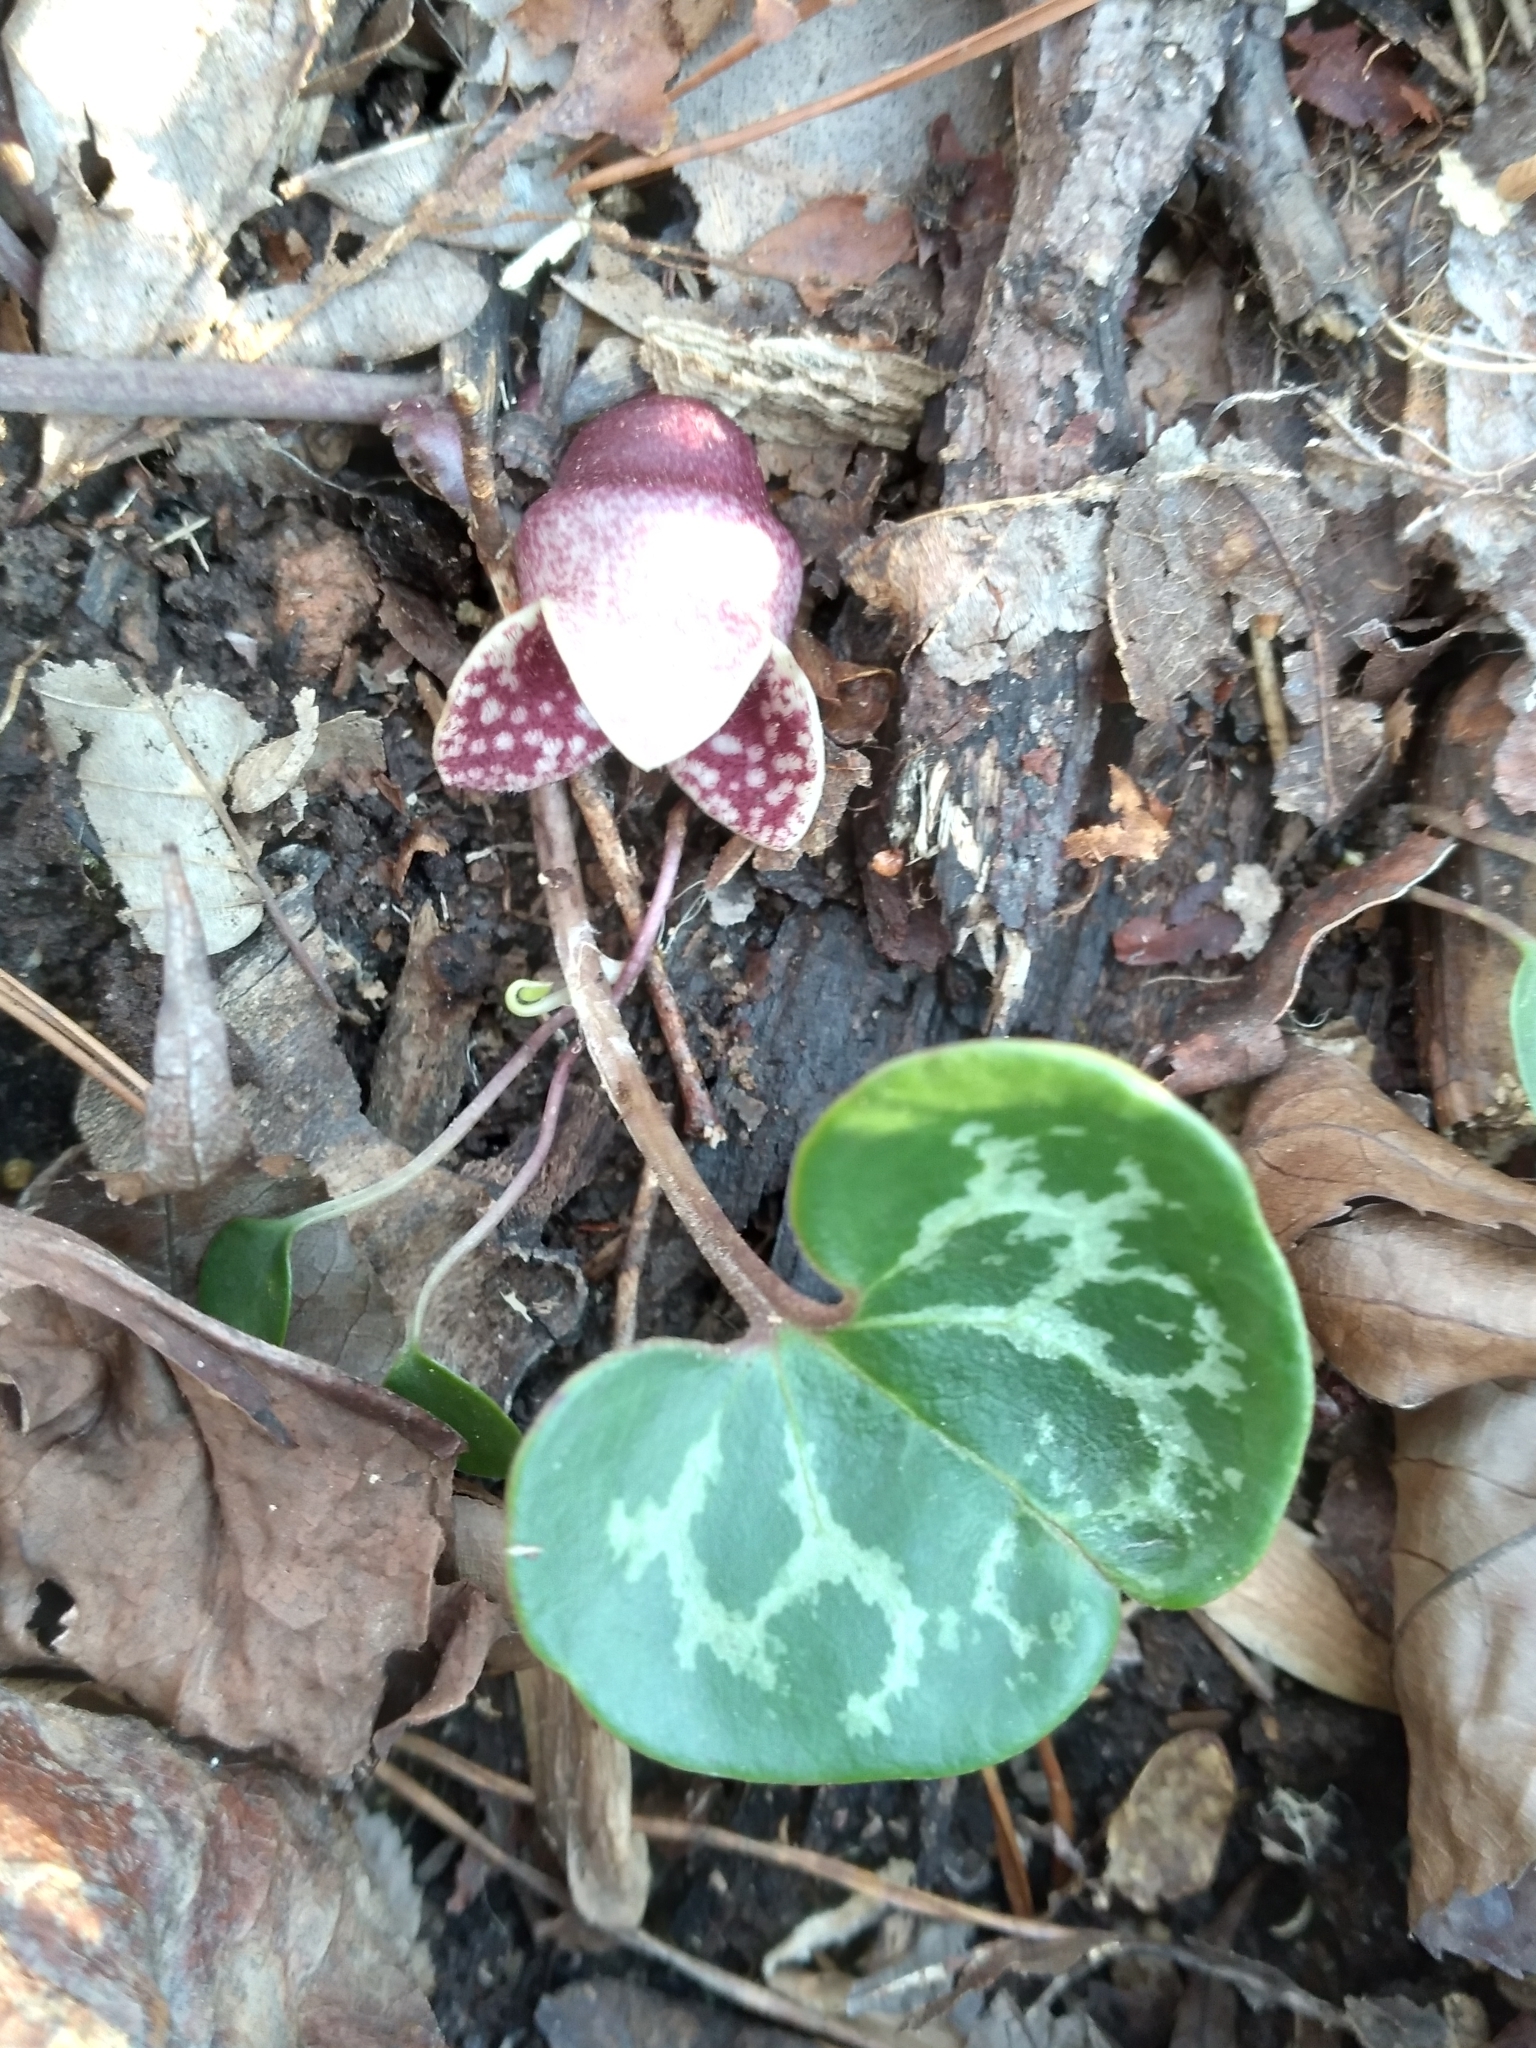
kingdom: Plantae
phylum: Tracheophyta
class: Magnoliopsida
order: Piperales
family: Aristolochiaceae
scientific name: Aristolochiaceae
